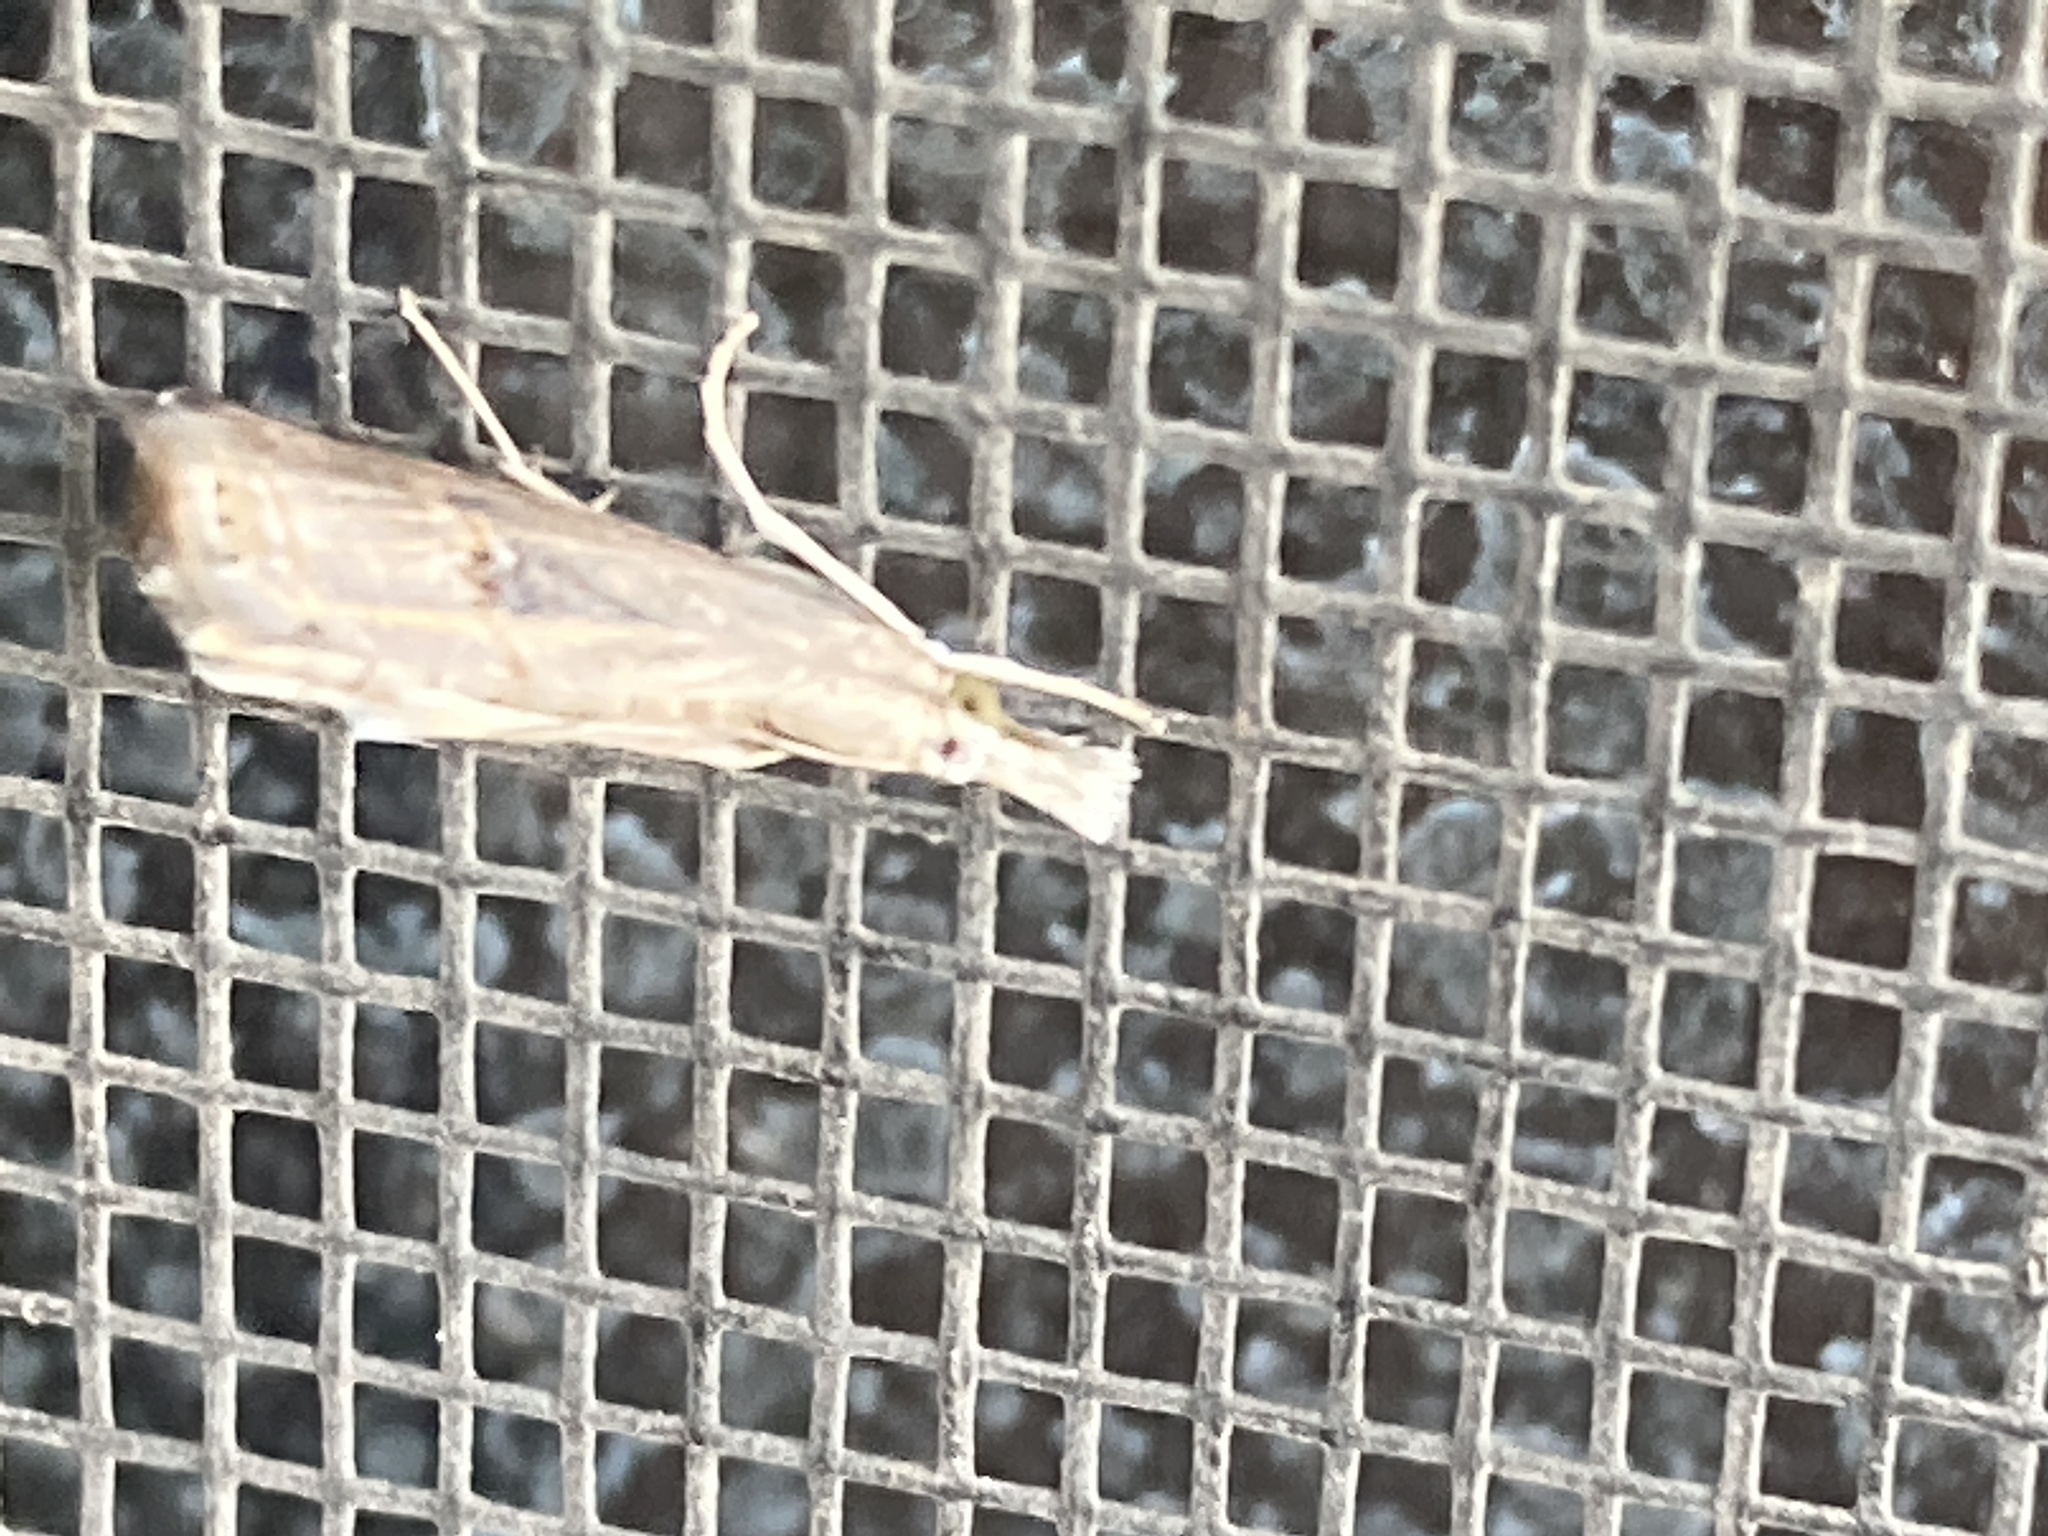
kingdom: Animalia
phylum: Arthropoda
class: Insecta
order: Lepidoptera
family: Crambidae
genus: Parapediasia
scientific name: Parapediasia teterellus
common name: Bluegrass webworm moth
